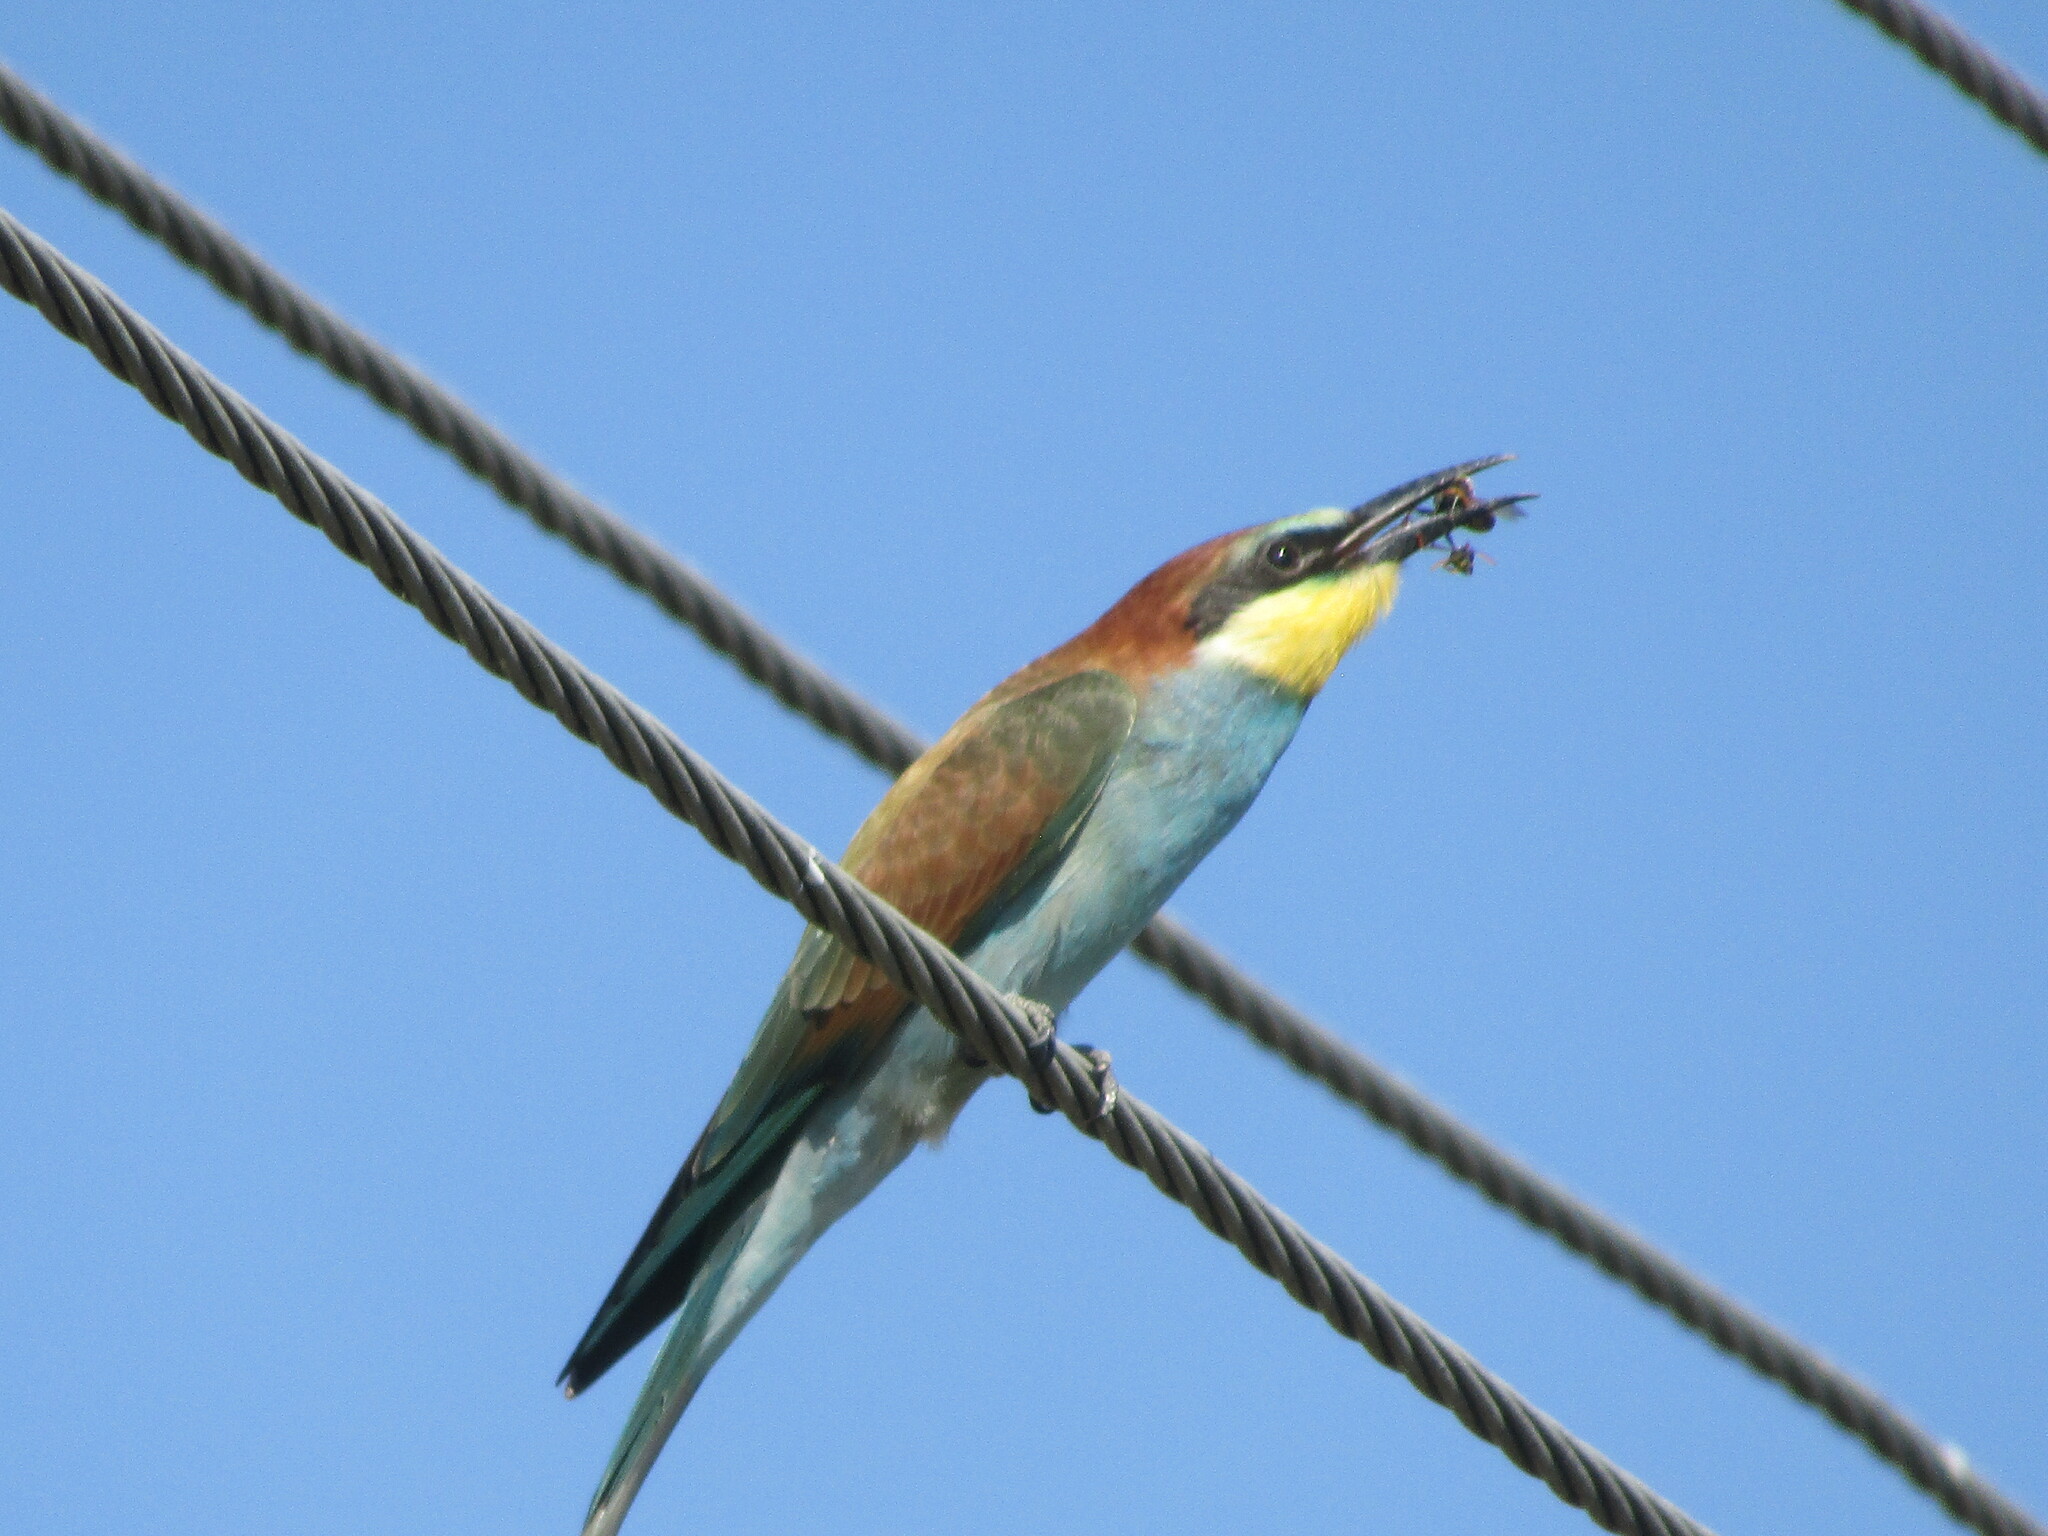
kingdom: Animalia
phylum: Chordata
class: Aves
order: Coraciiformes
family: Meropidae
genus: Merops
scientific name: Merops apiaster
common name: European bee-eater
